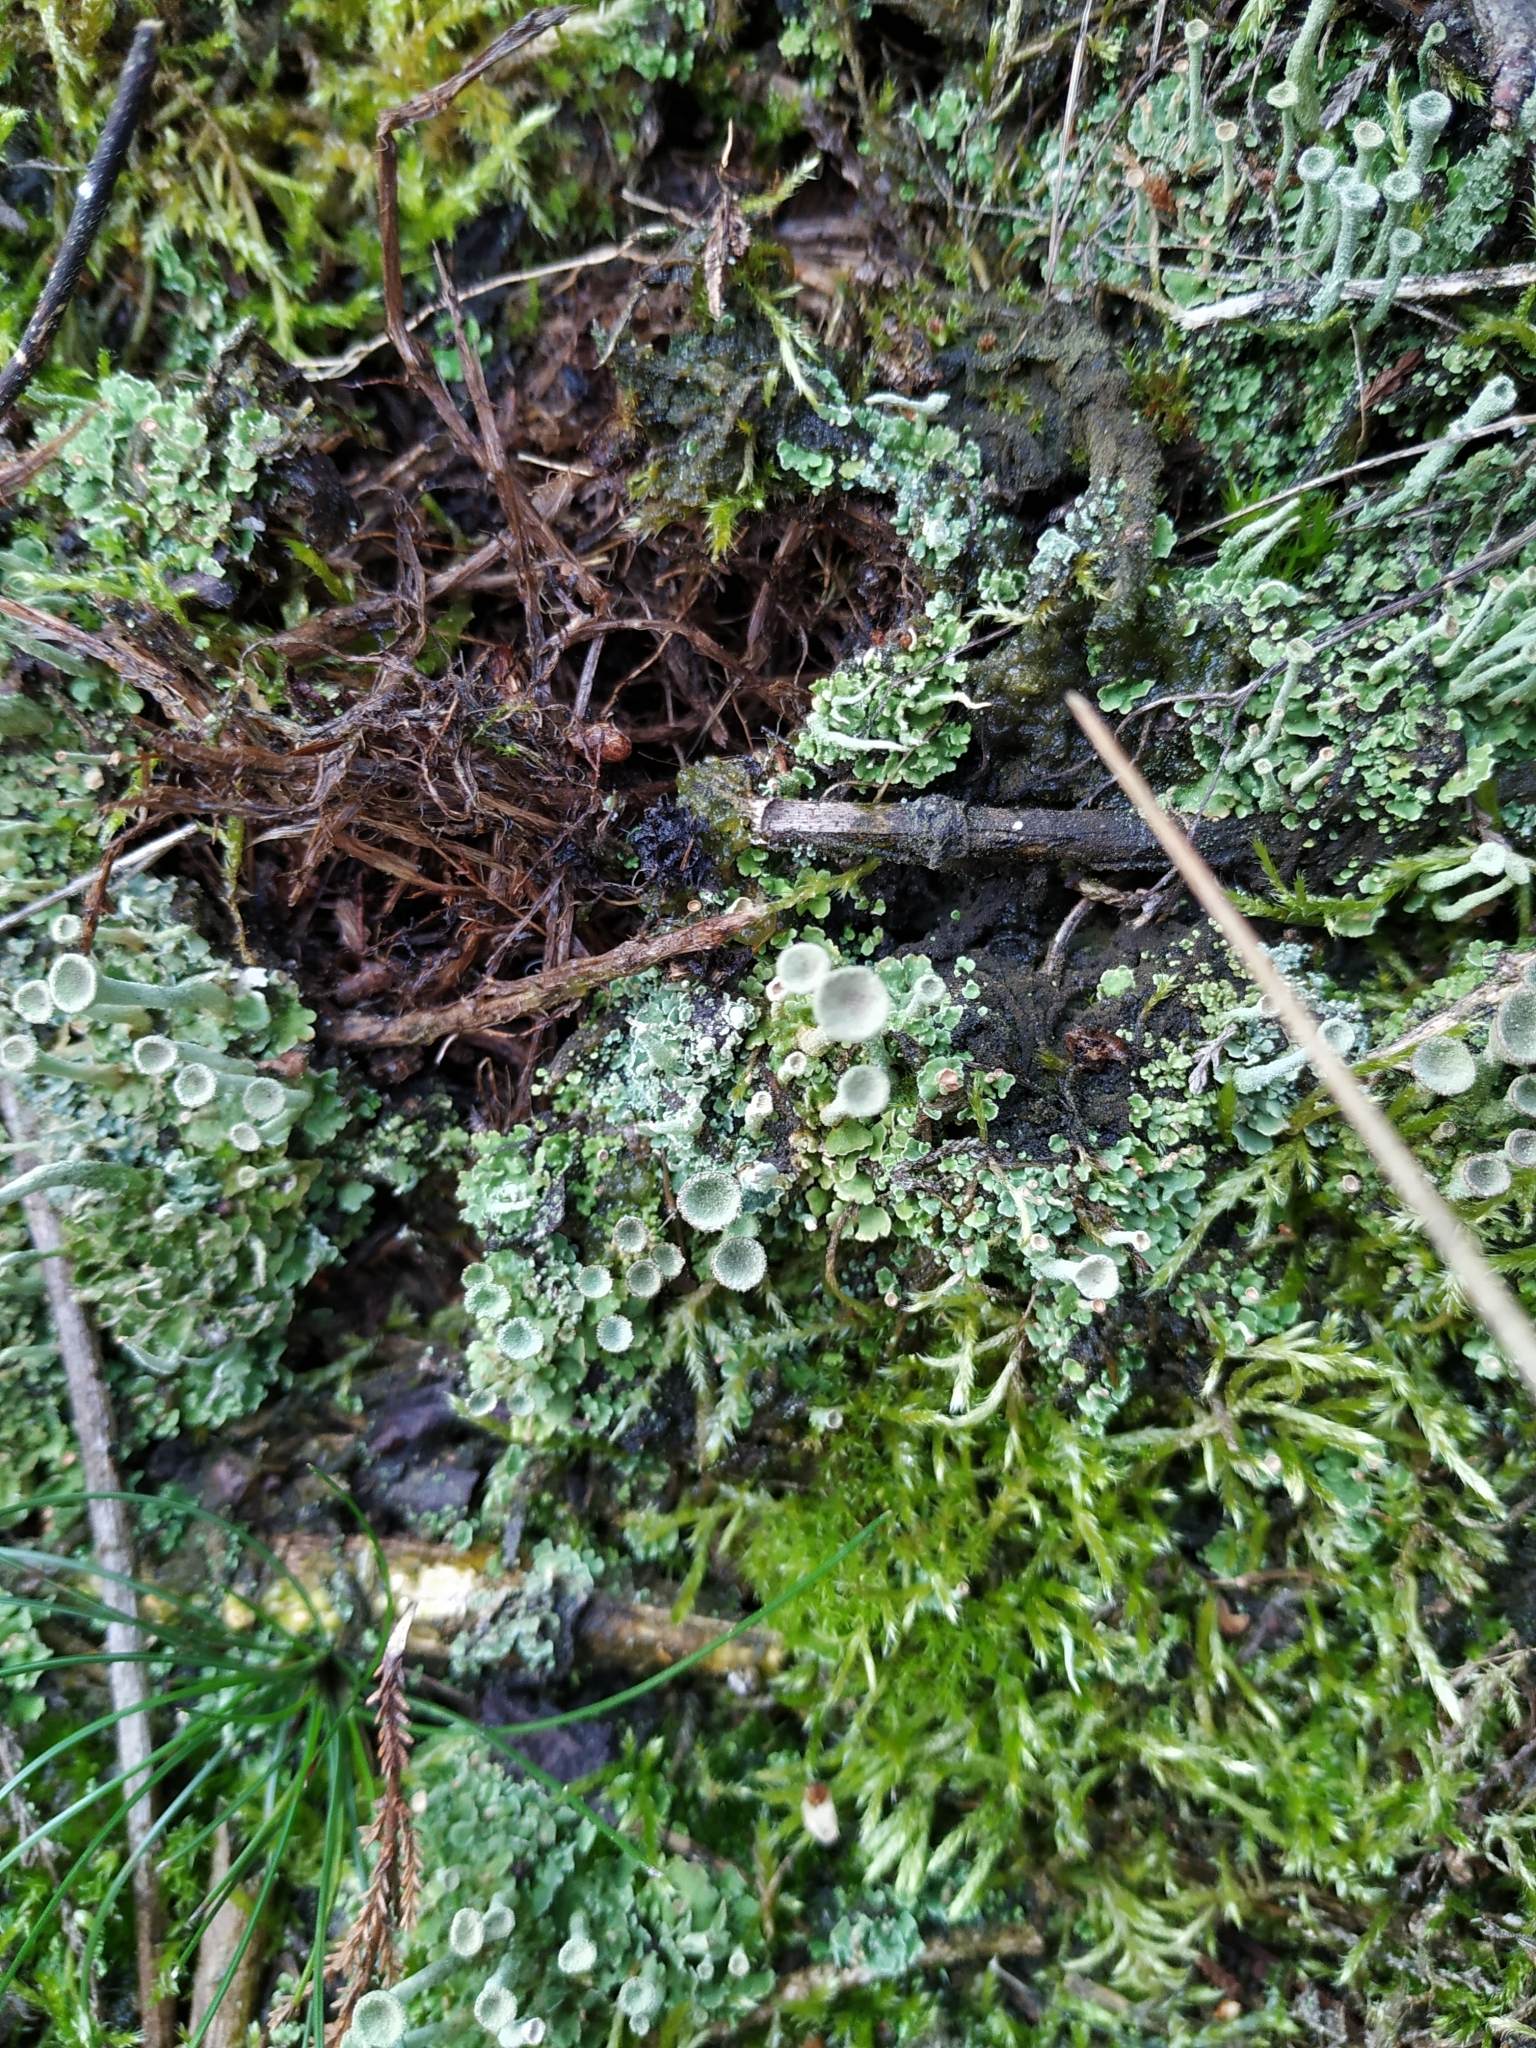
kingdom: Fungi
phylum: Ascomycota
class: Lecanoromycetes
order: Lecanorales
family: Cladoniaceae
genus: Cladonia
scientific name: Cladonia fimbriata
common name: Powdered trumpet lichen
